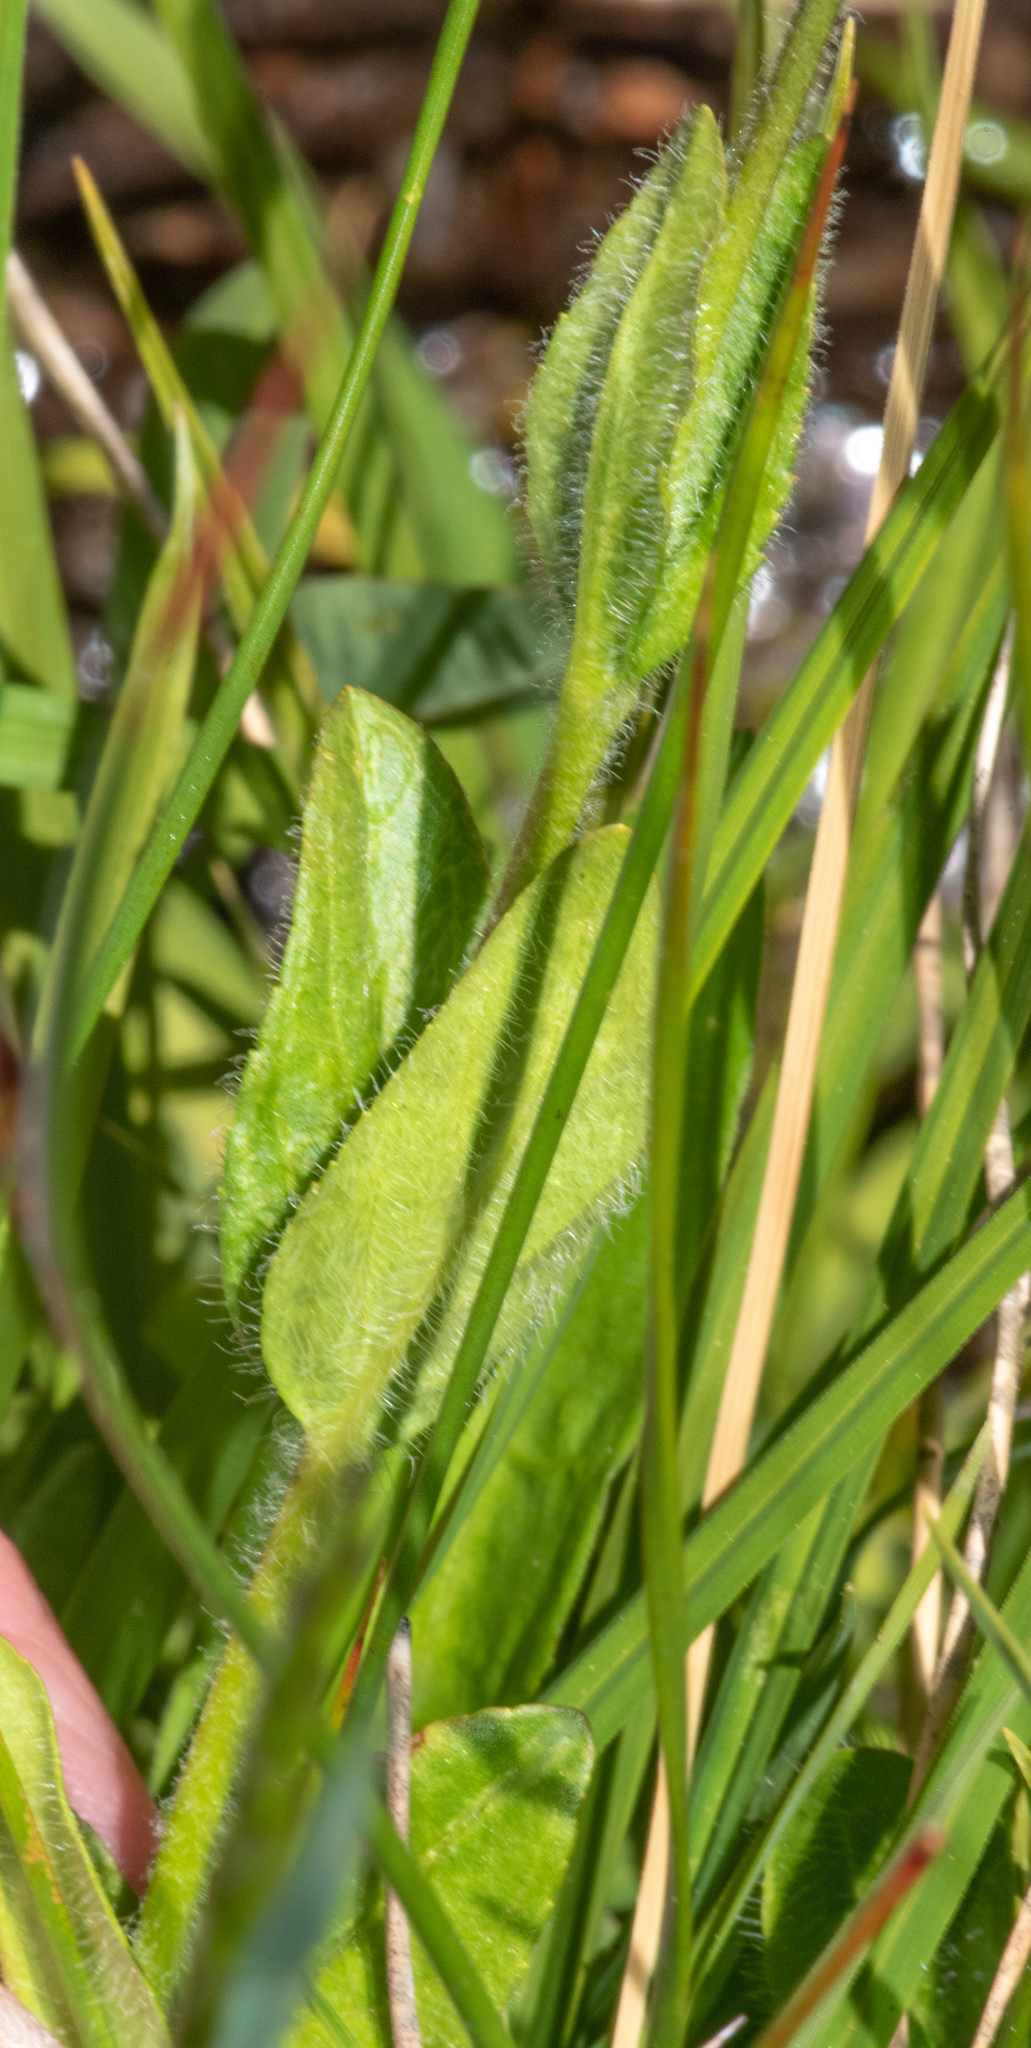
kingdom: Plantae
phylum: Tracheophyta
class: Magnoliopsida
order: Lamiales
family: Plantaginaceae
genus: Veronica
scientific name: Veronica wormskjoldii
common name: American alpine speedwell
